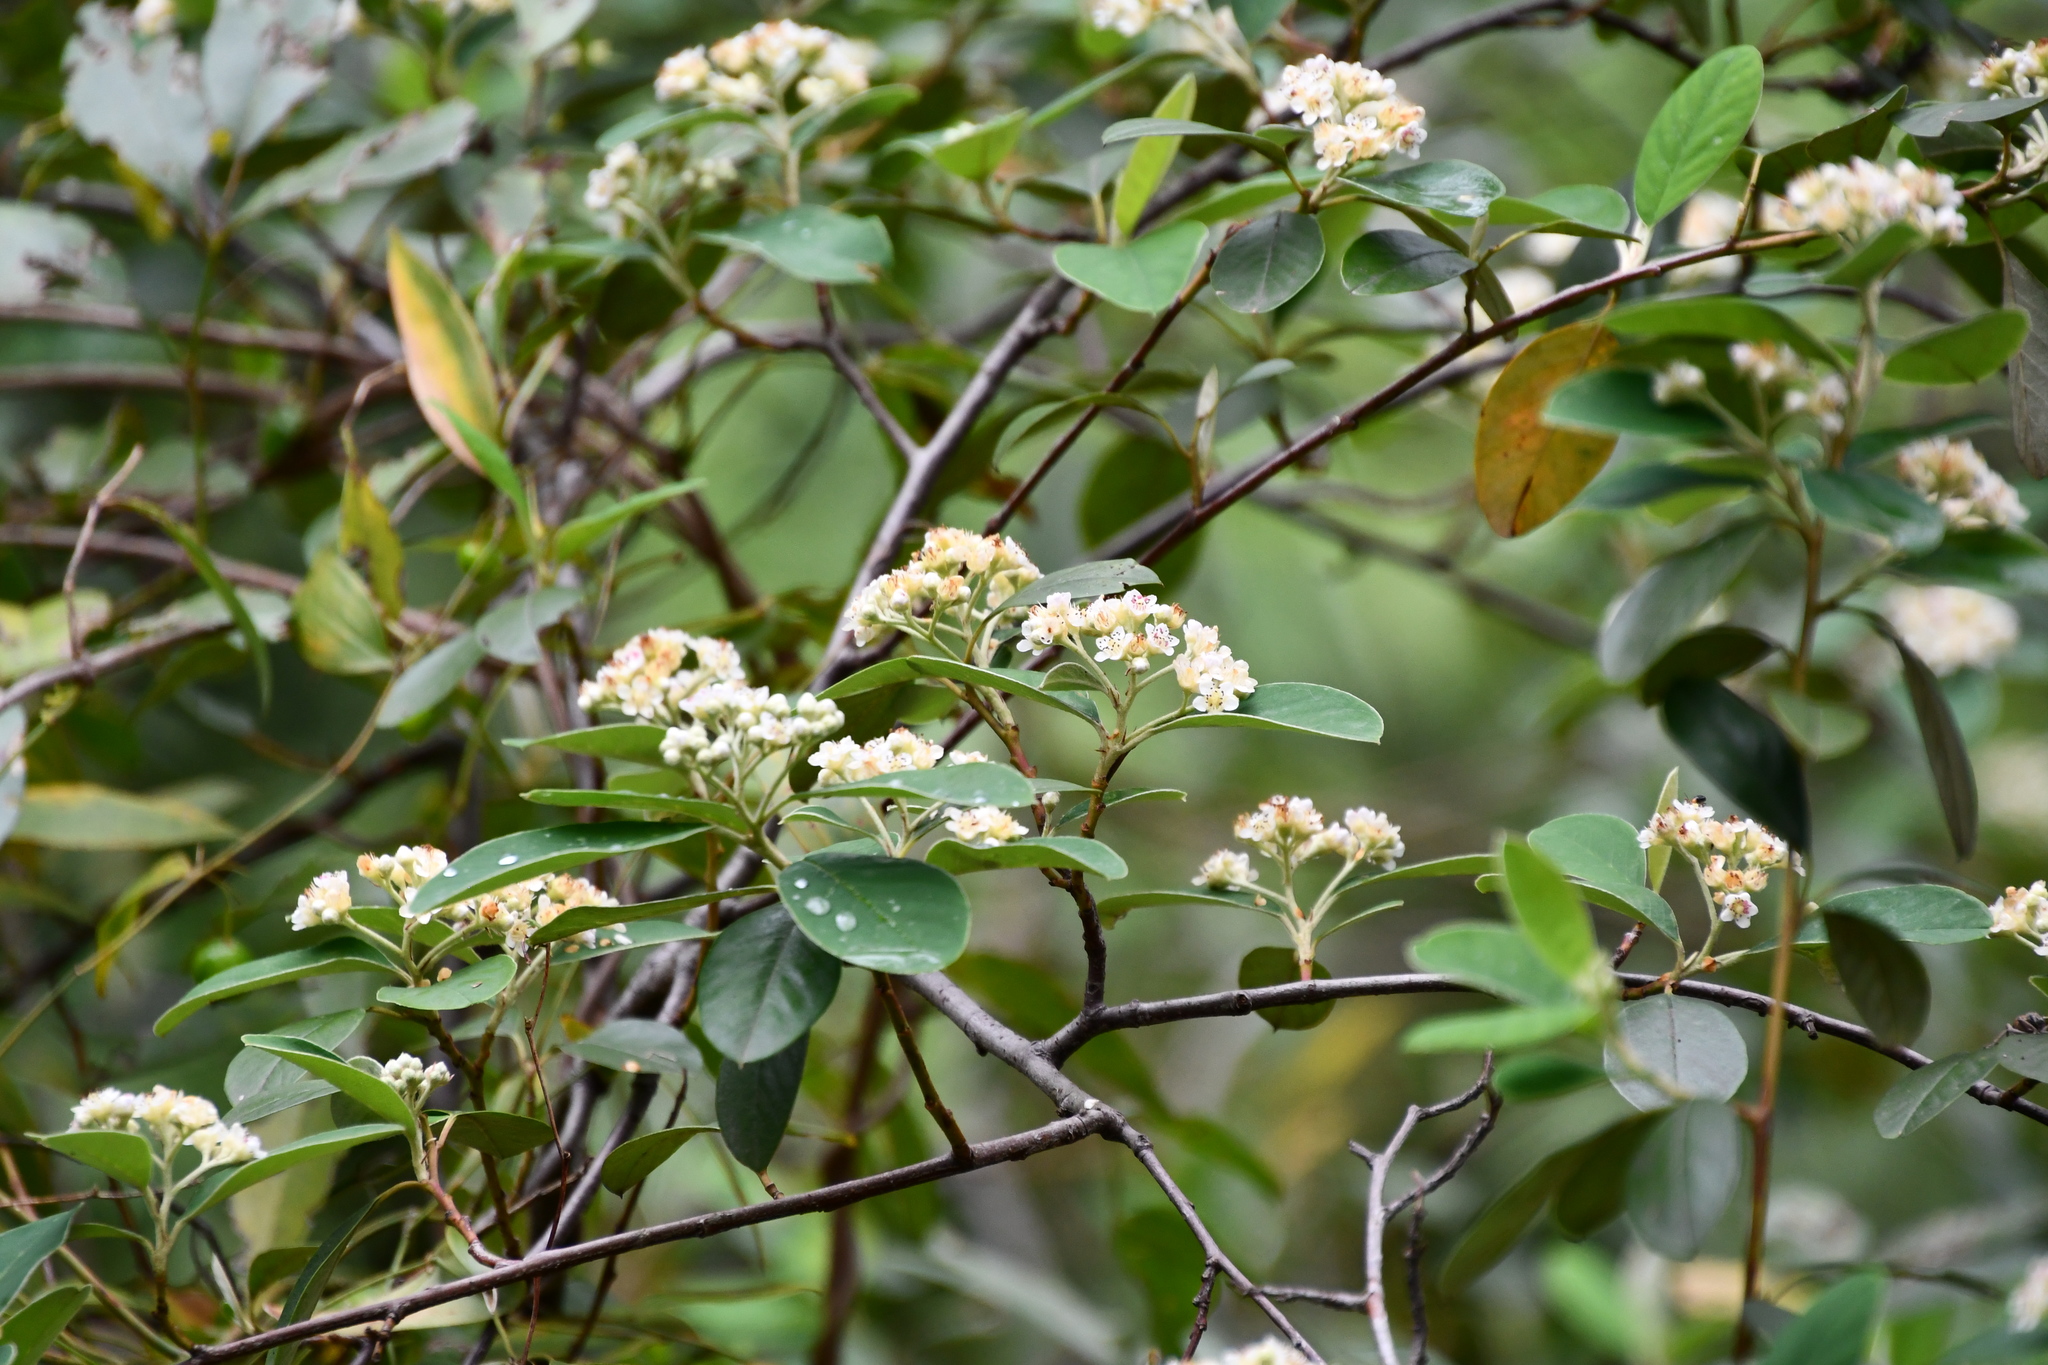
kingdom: Plantae
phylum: Tracheophyta
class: Magnoliopsida
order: Rosales
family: Rosaceae
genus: Cotoneaster
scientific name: Cotoneaster glaucophyllus
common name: Glaucous cotoneaster
